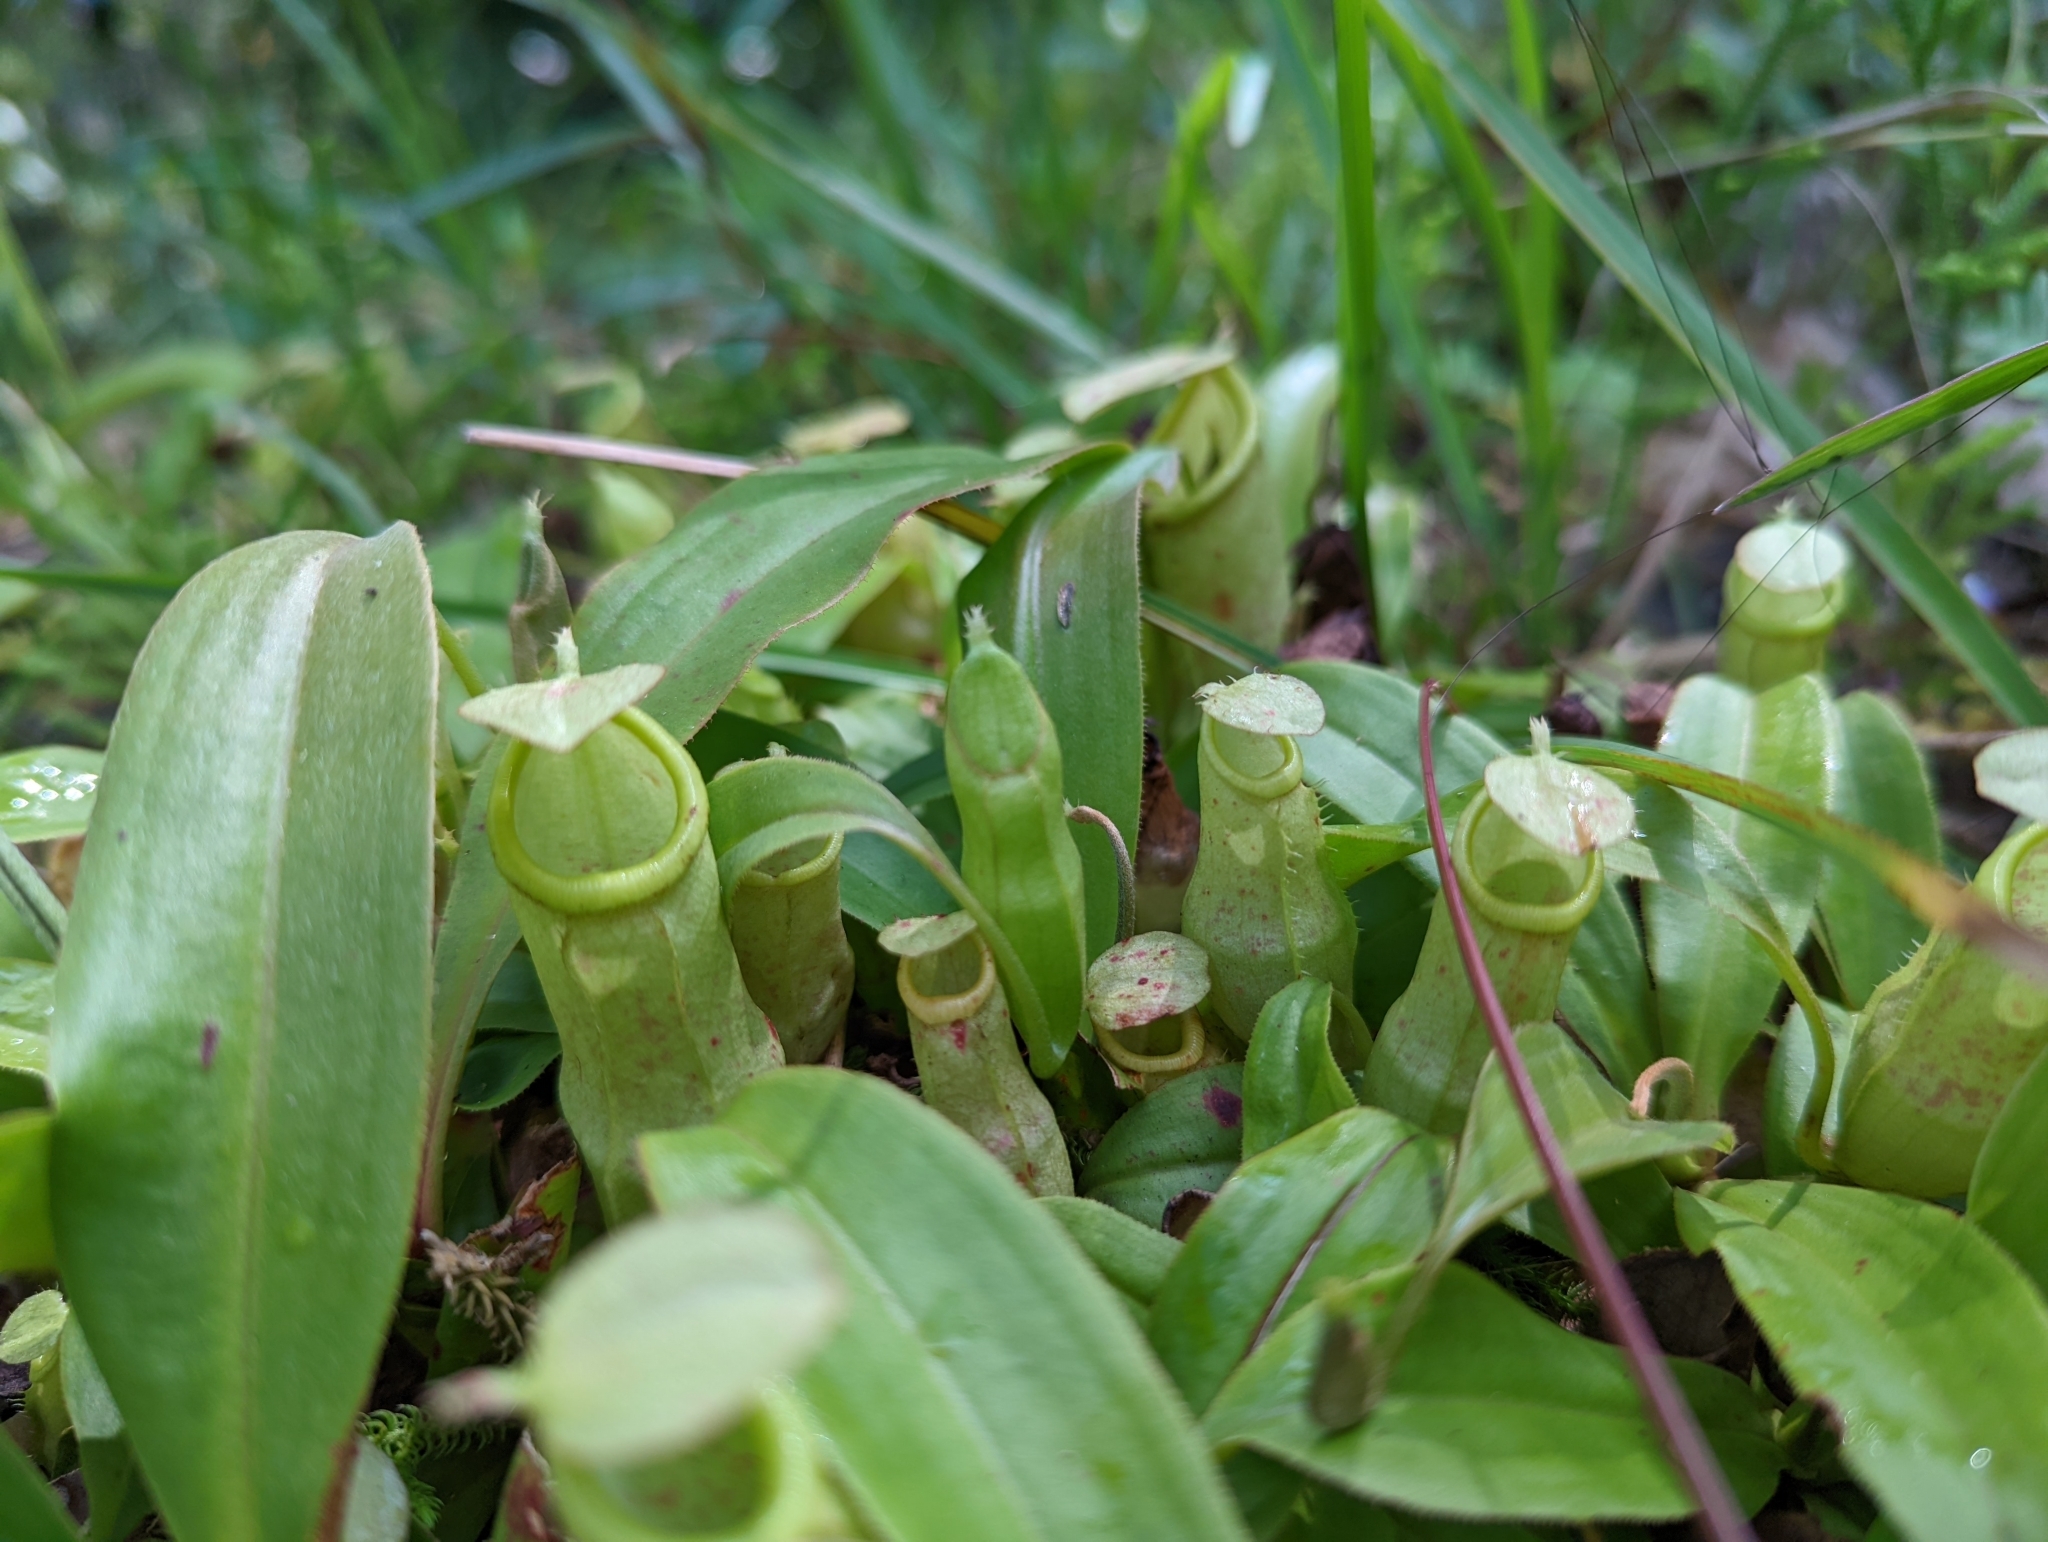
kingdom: Plantae
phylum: Tracheophyta
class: Magnoliopsida
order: Caryophyllales
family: Nepenthaceae
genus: Nepenthes
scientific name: Nepenthes mirabilis
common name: Tropical pitcherplant
